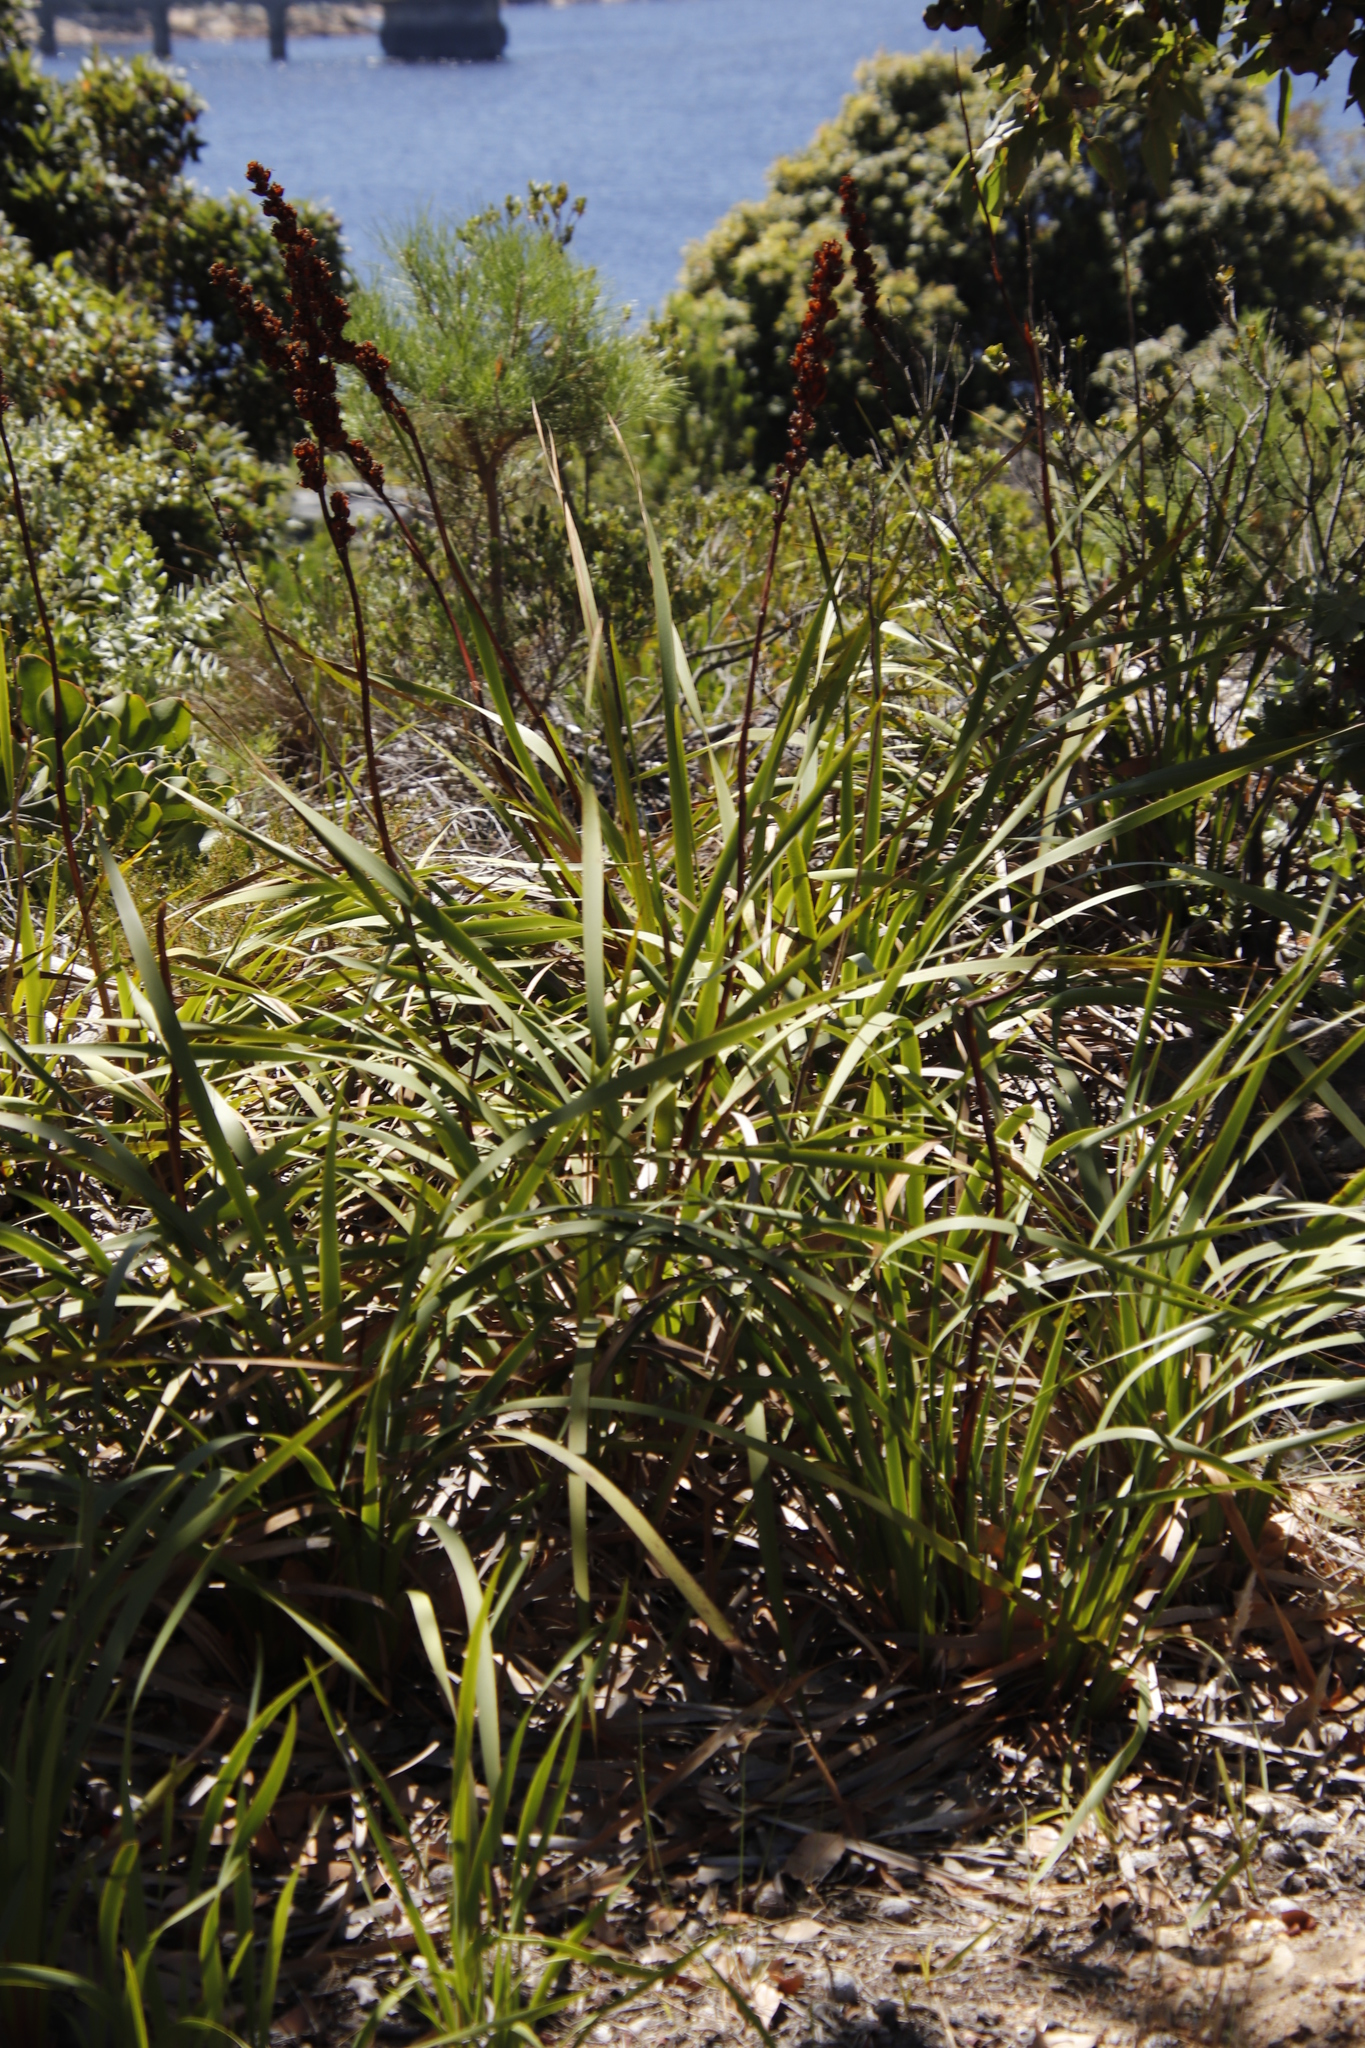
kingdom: Plantae
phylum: Tracheophyta
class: Liliopsida
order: Asparagales
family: Iridaceae
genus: Aristea
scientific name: Aristea capitata
